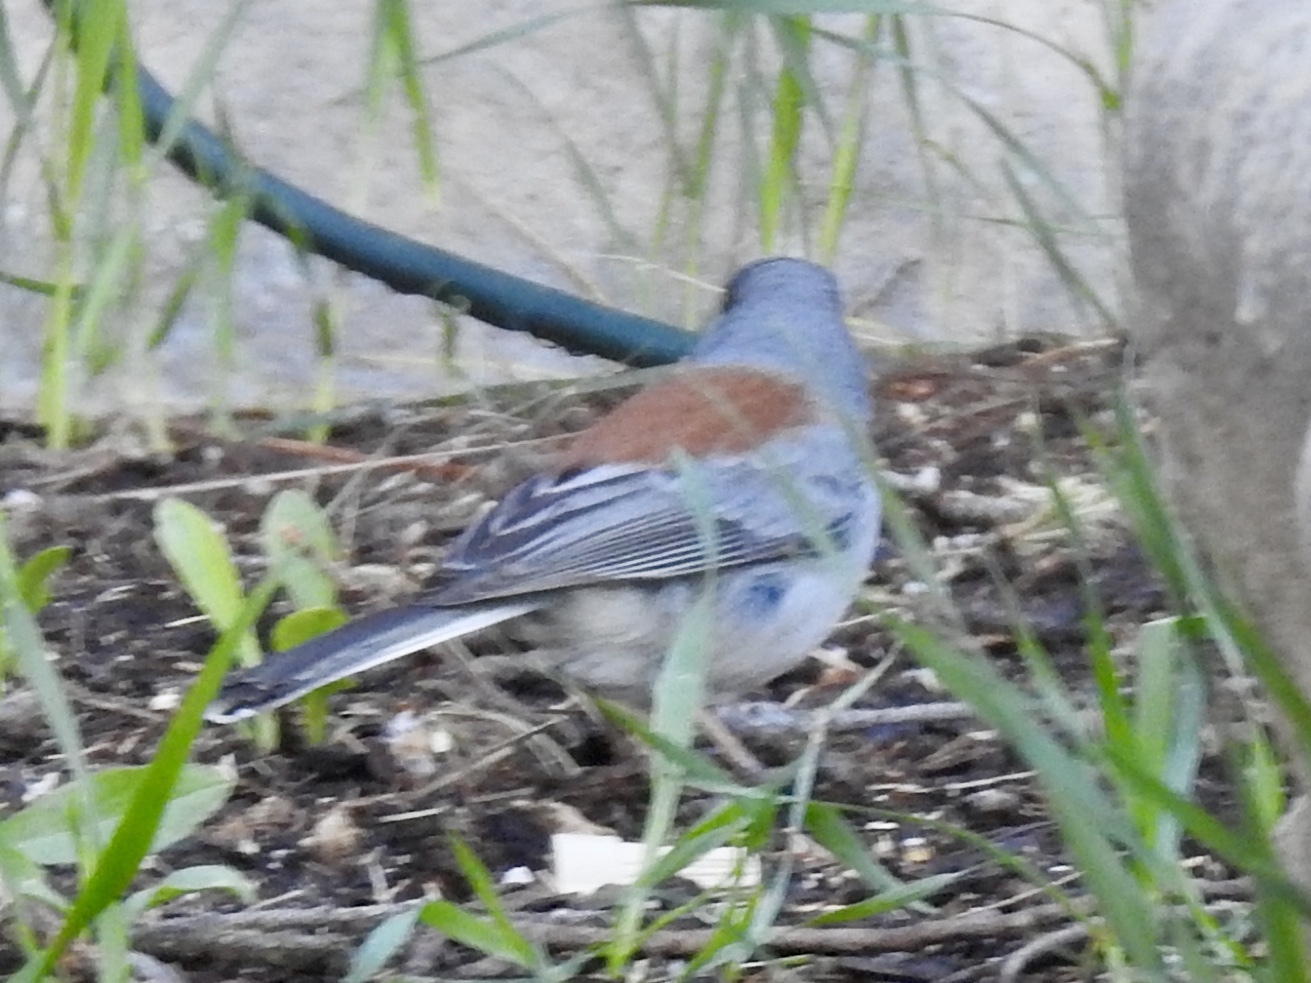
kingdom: Animalia
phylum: Chordata
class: Aves
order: Passeriformes
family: Passerellidae
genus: Junco
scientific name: Junco hyemalis
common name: Dark-eyed junco
